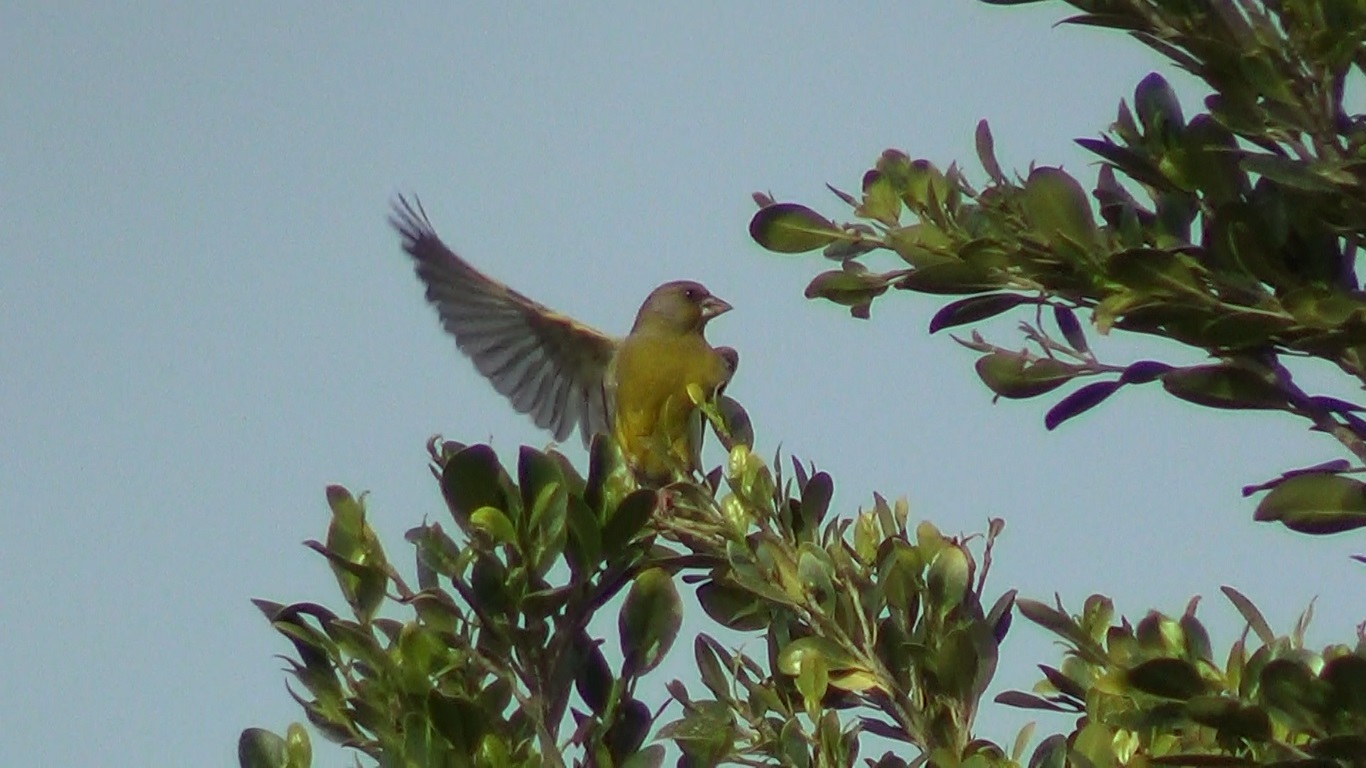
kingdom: Plantae
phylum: Tracheophyta
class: Liliopsida
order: Poales
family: Poaceae
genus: Chloris
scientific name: Chloris chloris
